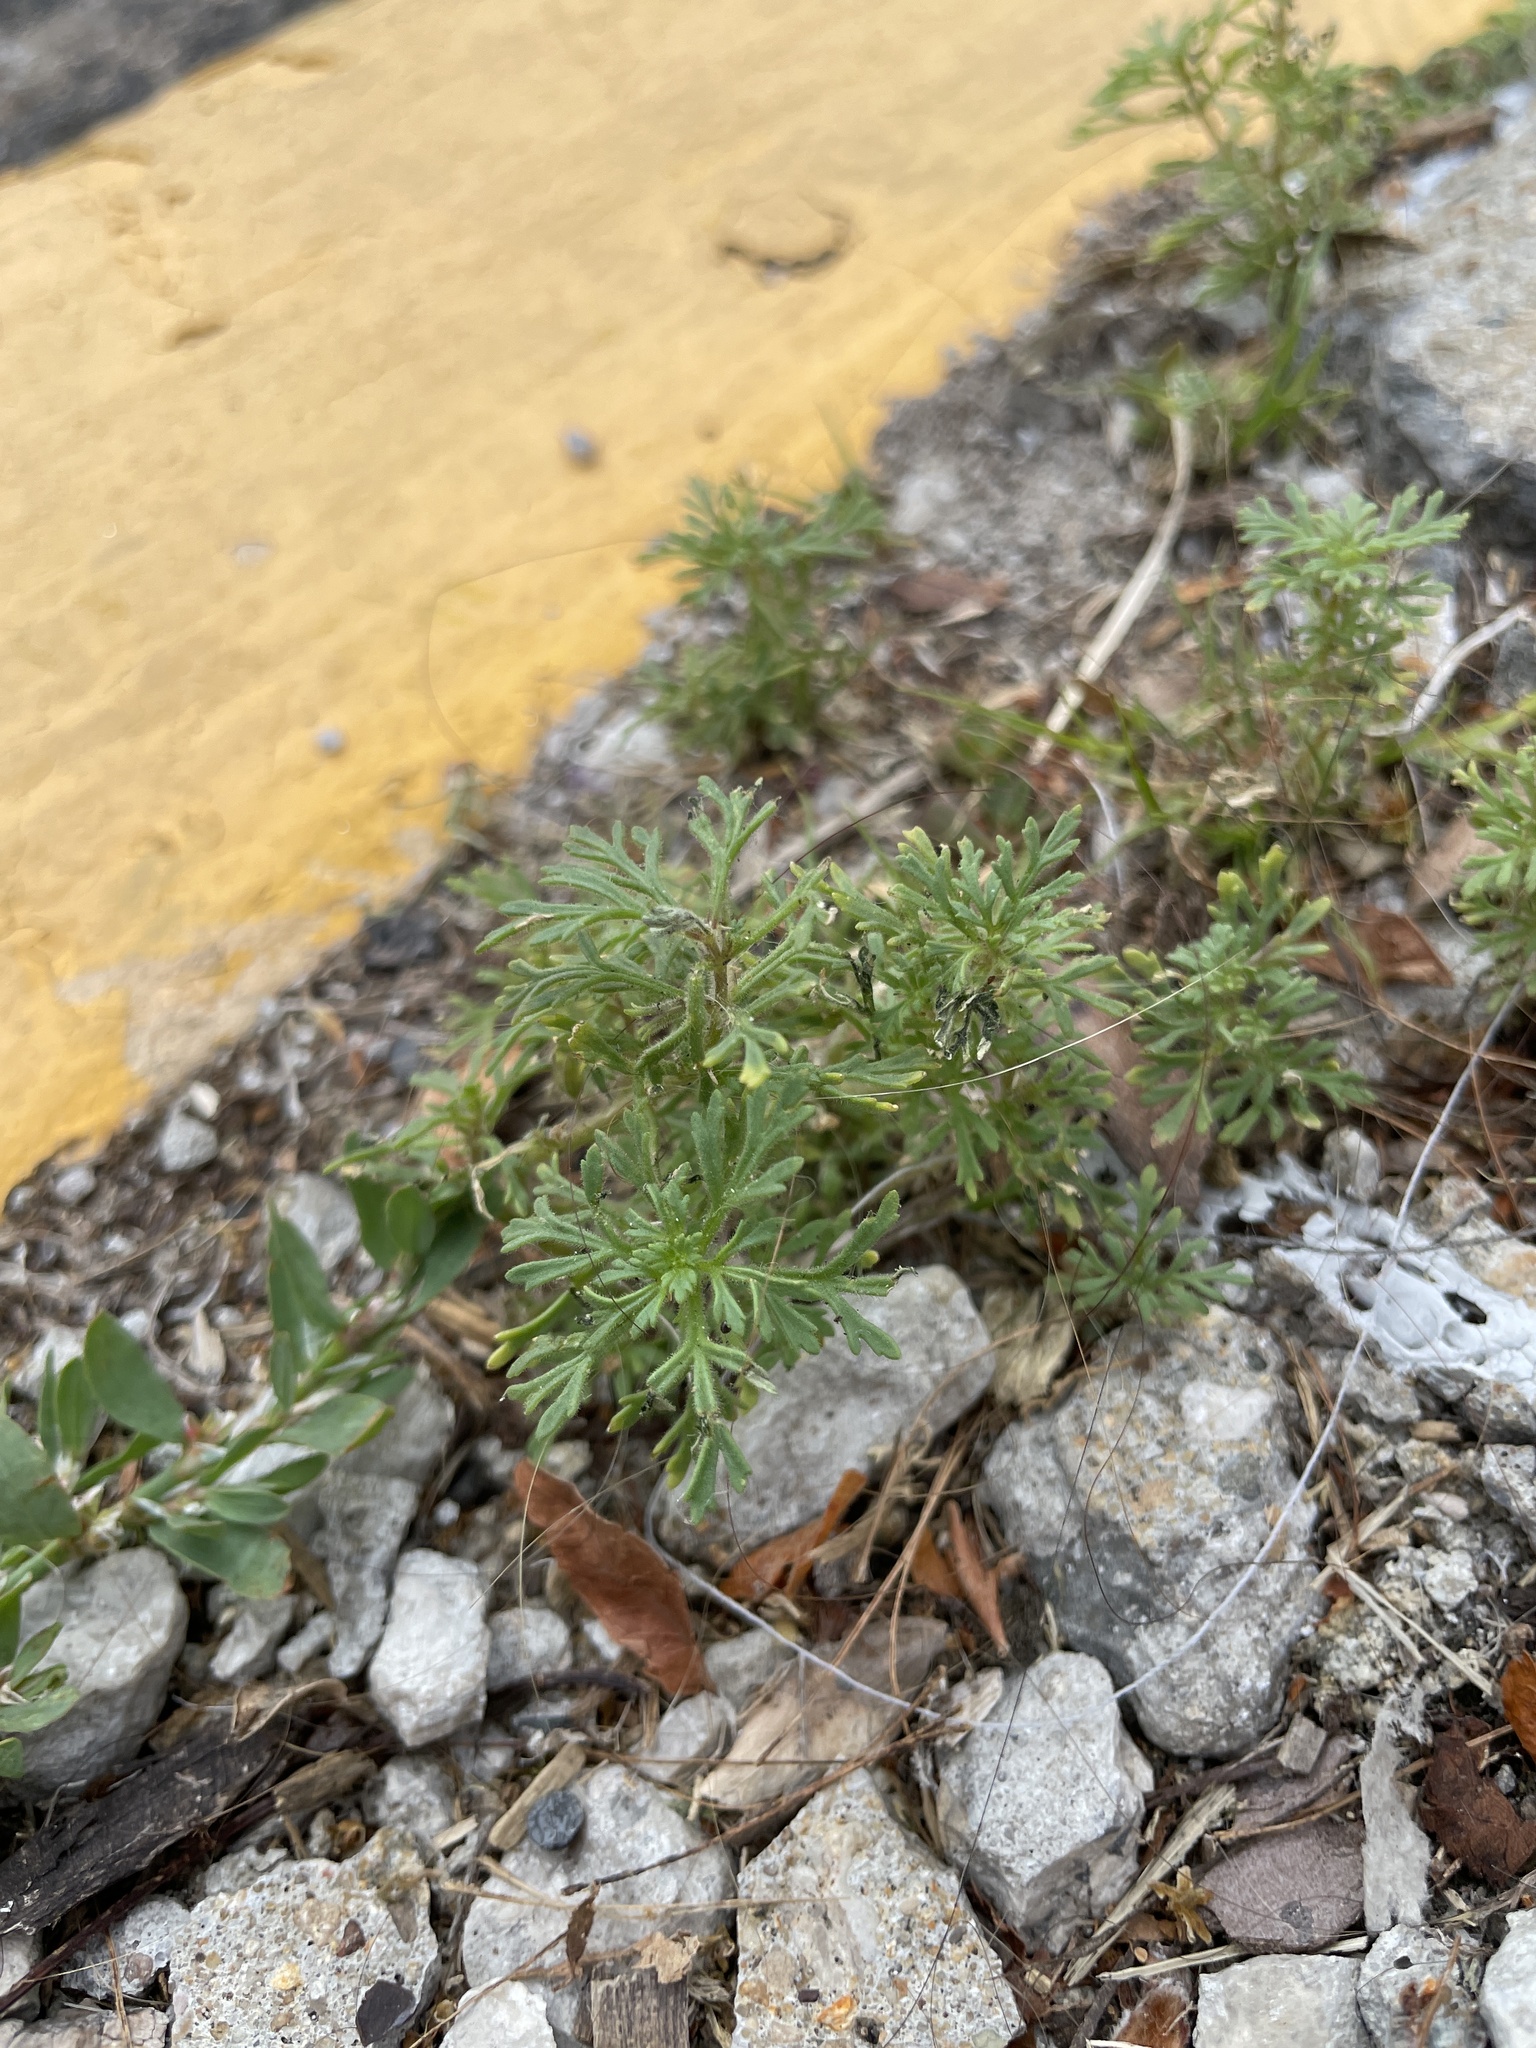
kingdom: Plantae
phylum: Tracheophyta
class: Magnoliopsida
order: Lamiales
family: Plantaginaceae
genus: Leucospora
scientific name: Leucospora multifida
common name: Narrow-leaf paleseed
